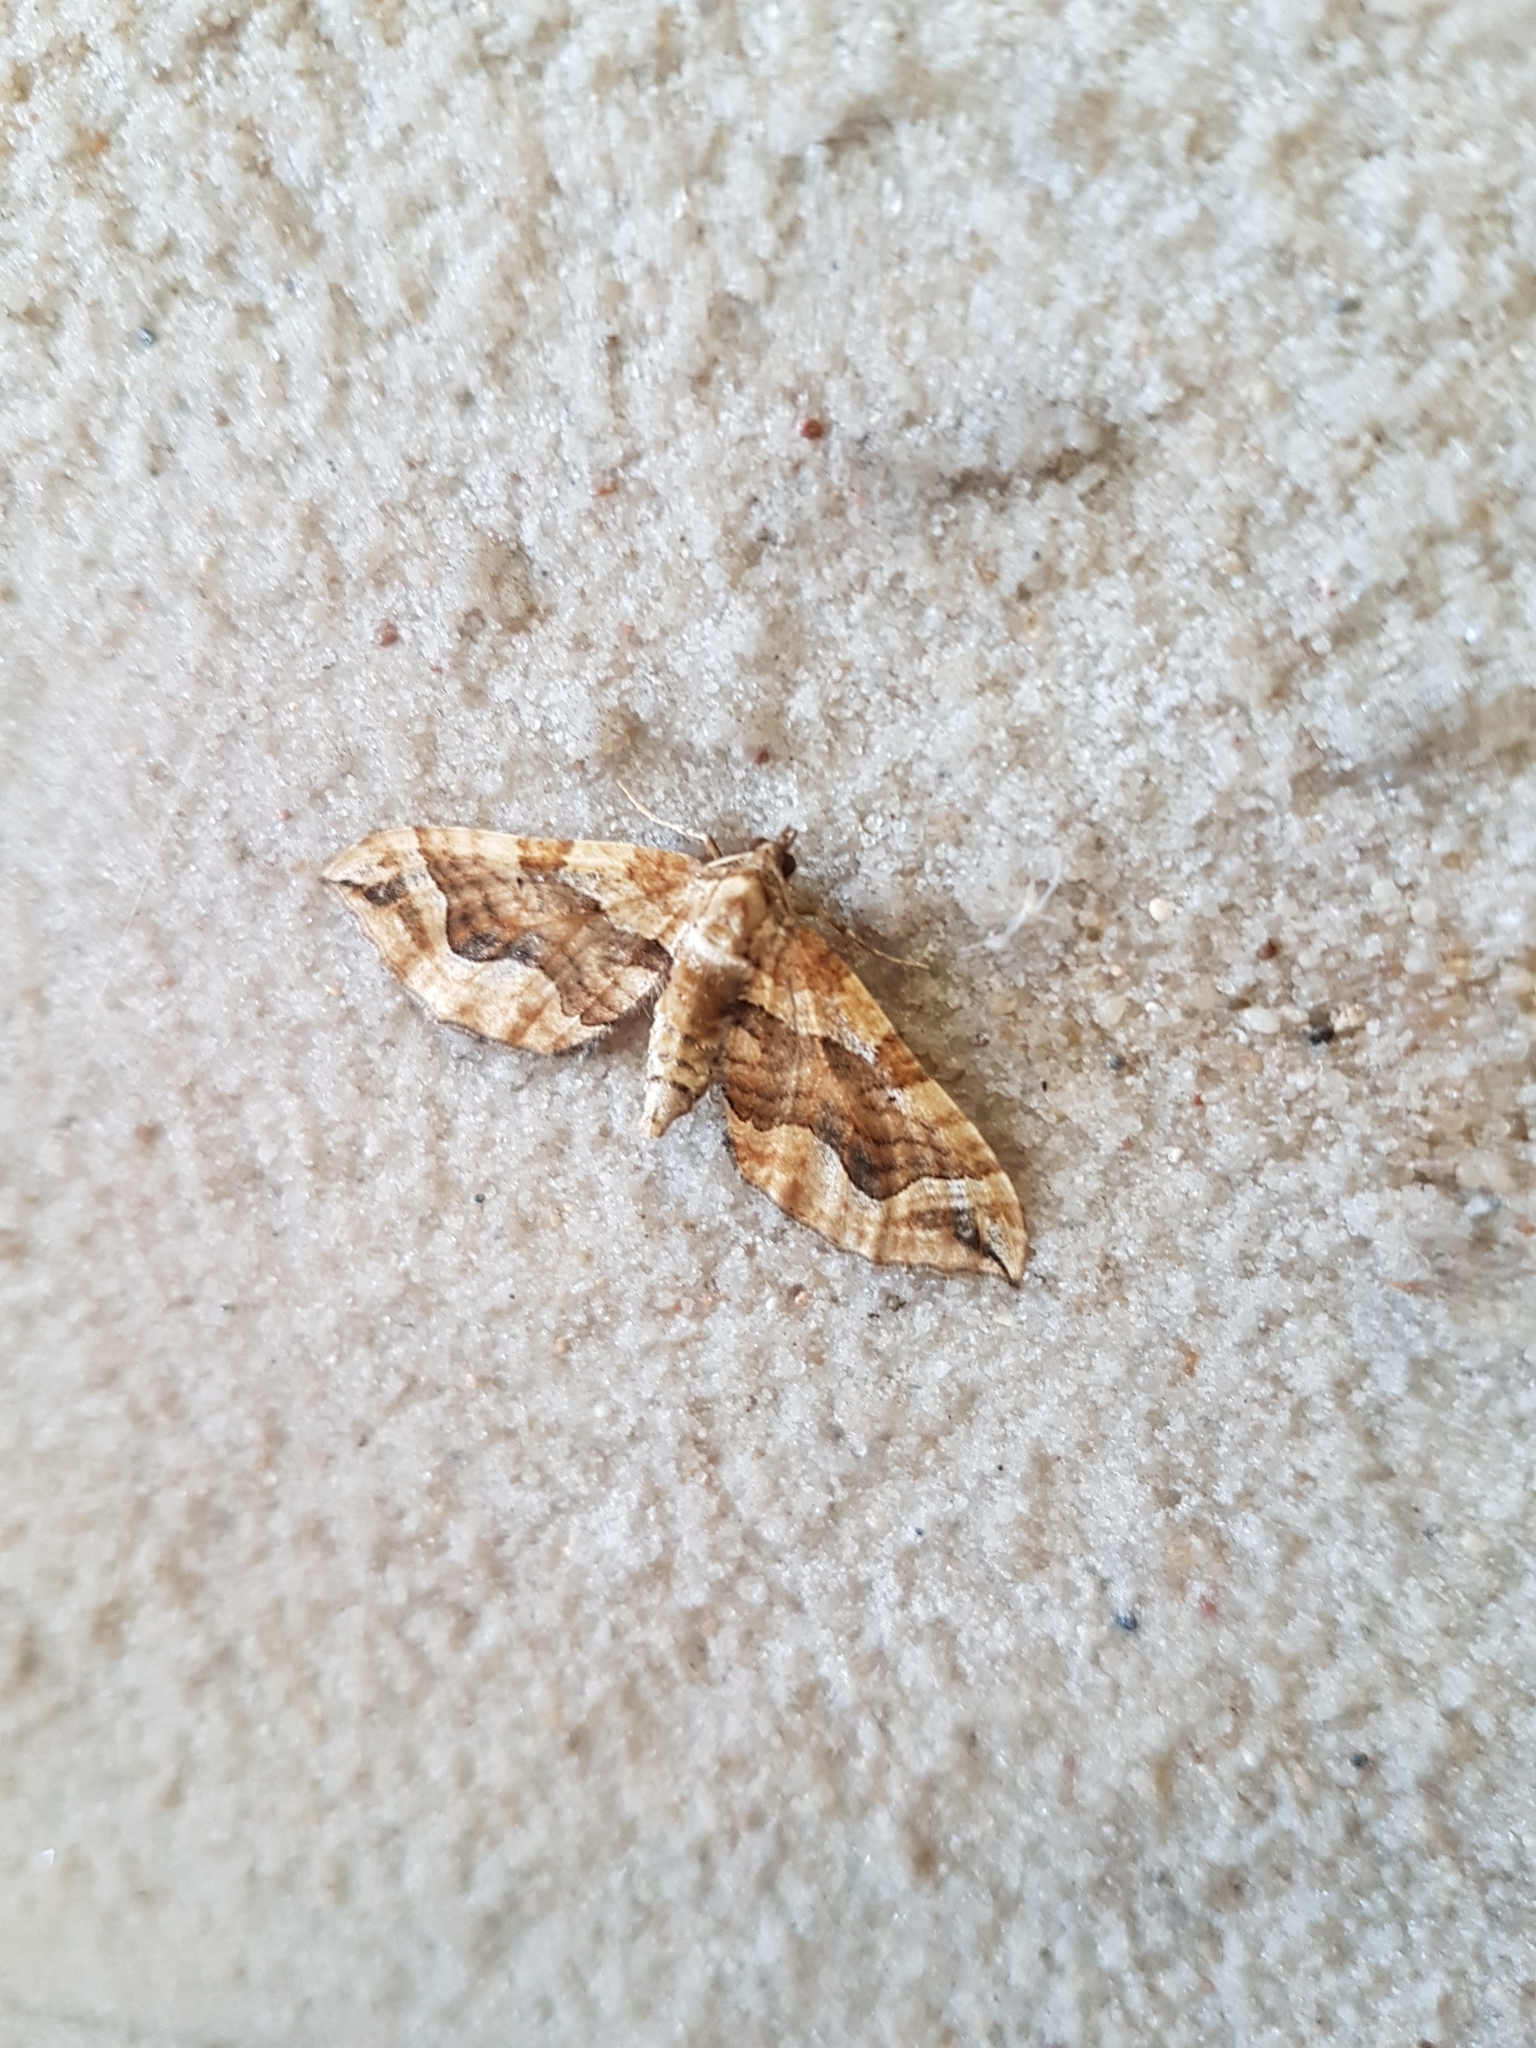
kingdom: Animalia
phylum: Arthropoda
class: Insecta
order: Lepidoptera
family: Geometridae
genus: Pelurga
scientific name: Pelurga comitata
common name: Dark spinach
